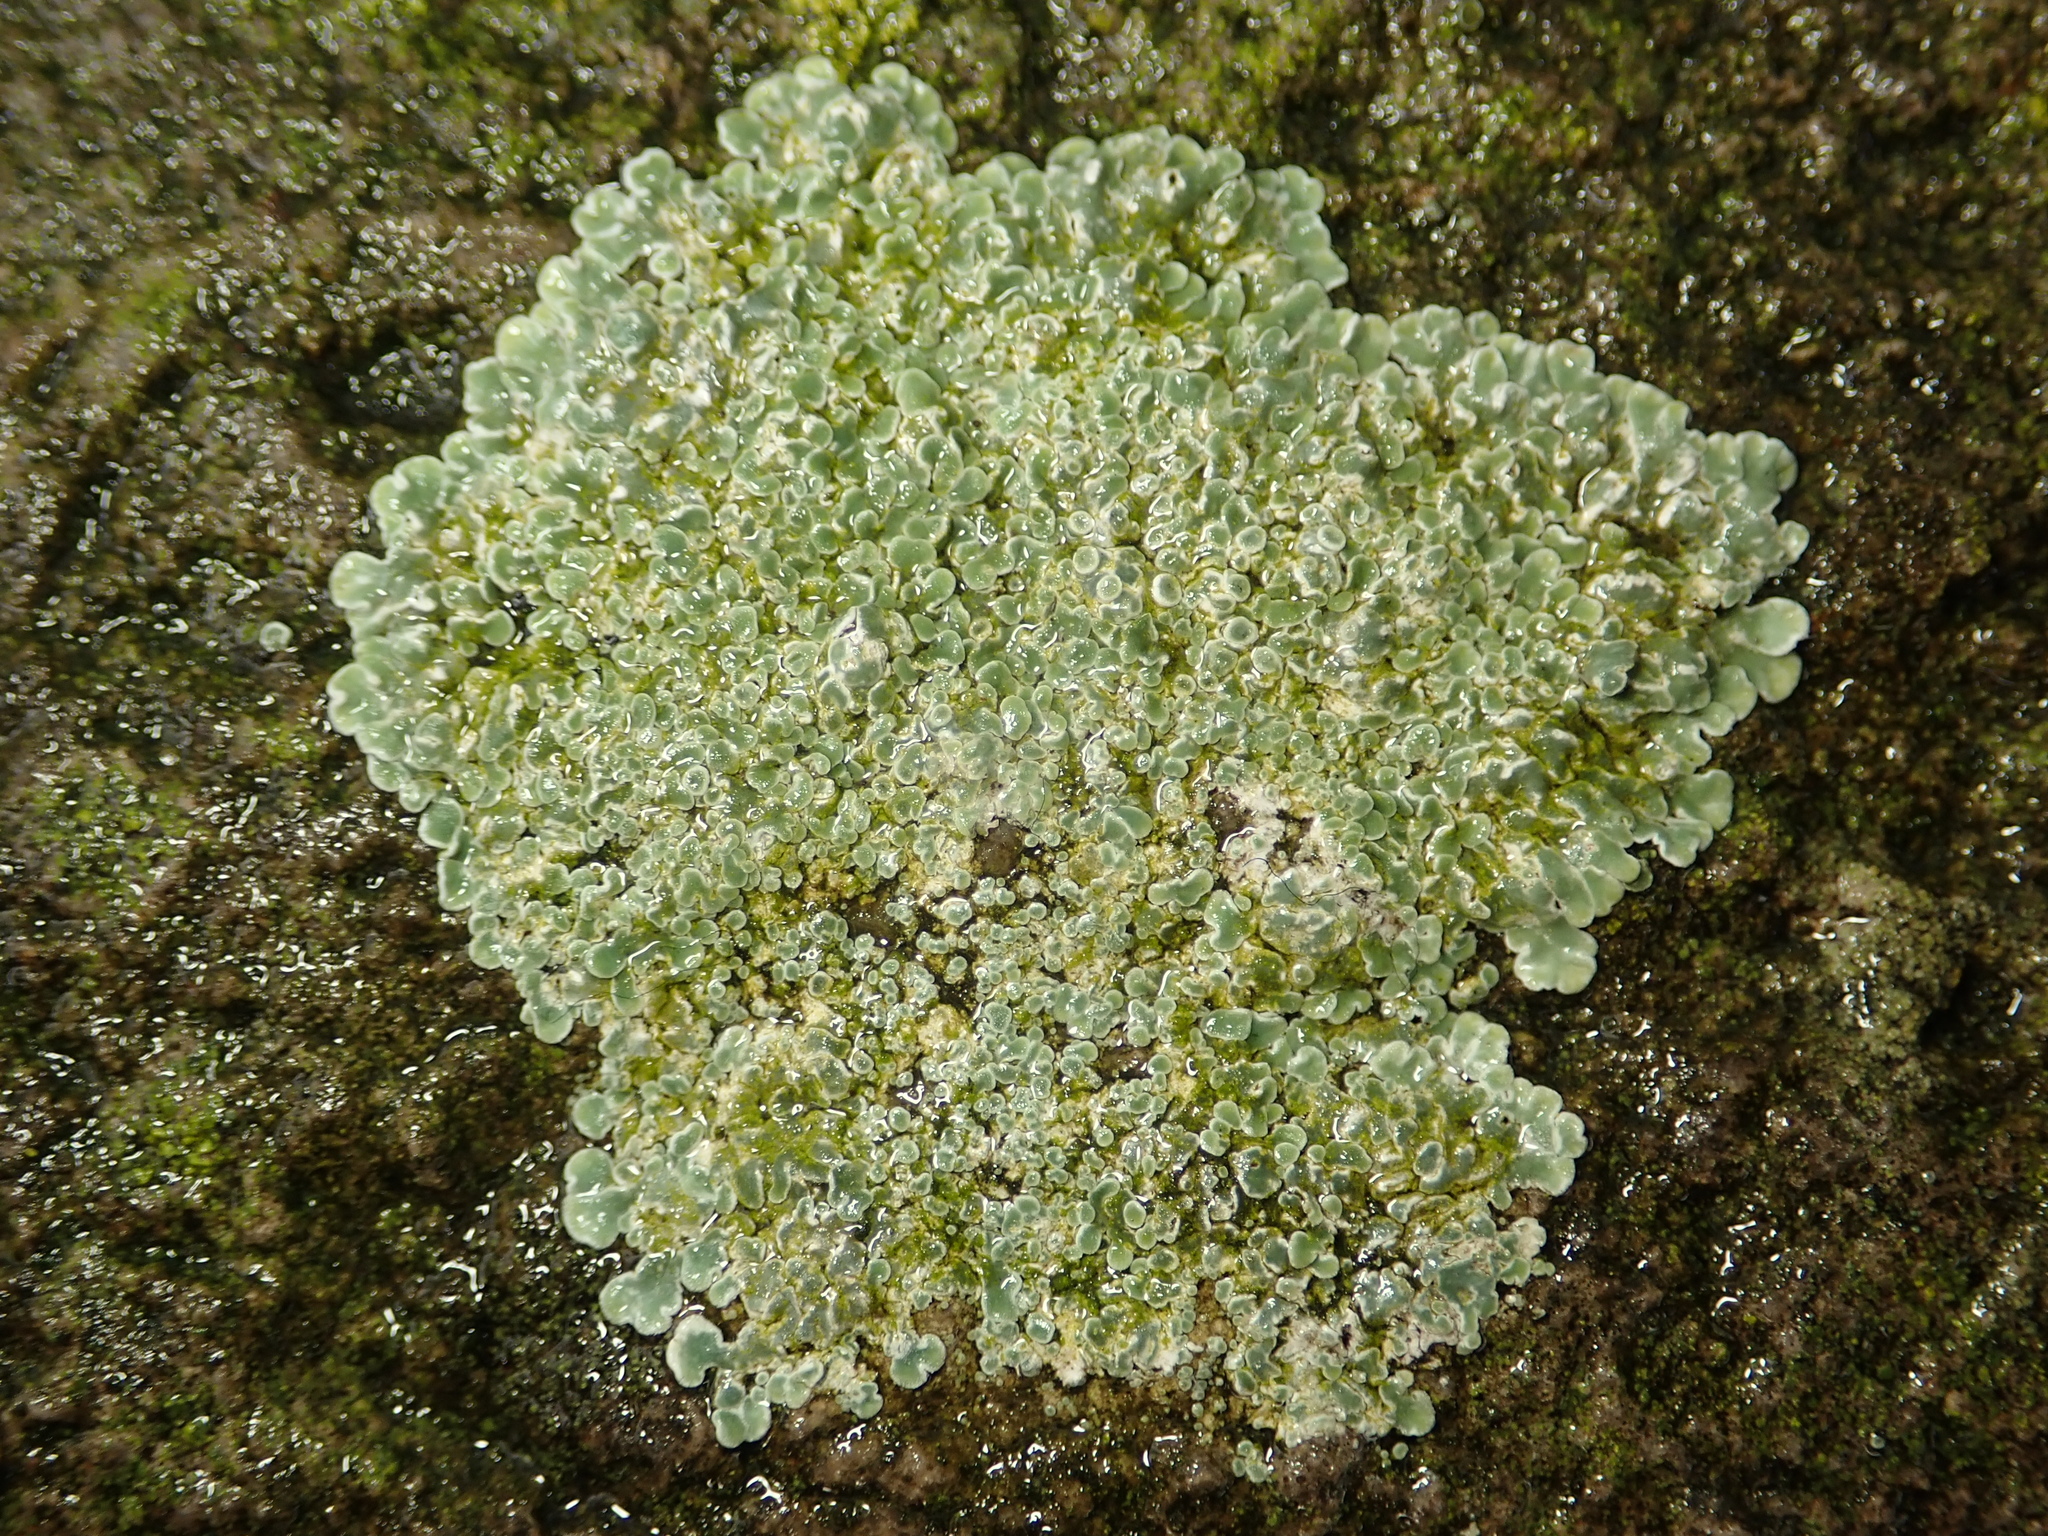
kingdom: Fungi
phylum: Ascomycota
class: Lecanoromycetes
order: Lecanorales
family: Lecanoraceae
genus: Protoparmeliopsis
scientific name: Protoparmeliopsis muralis
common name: Stonewall rim lichen
